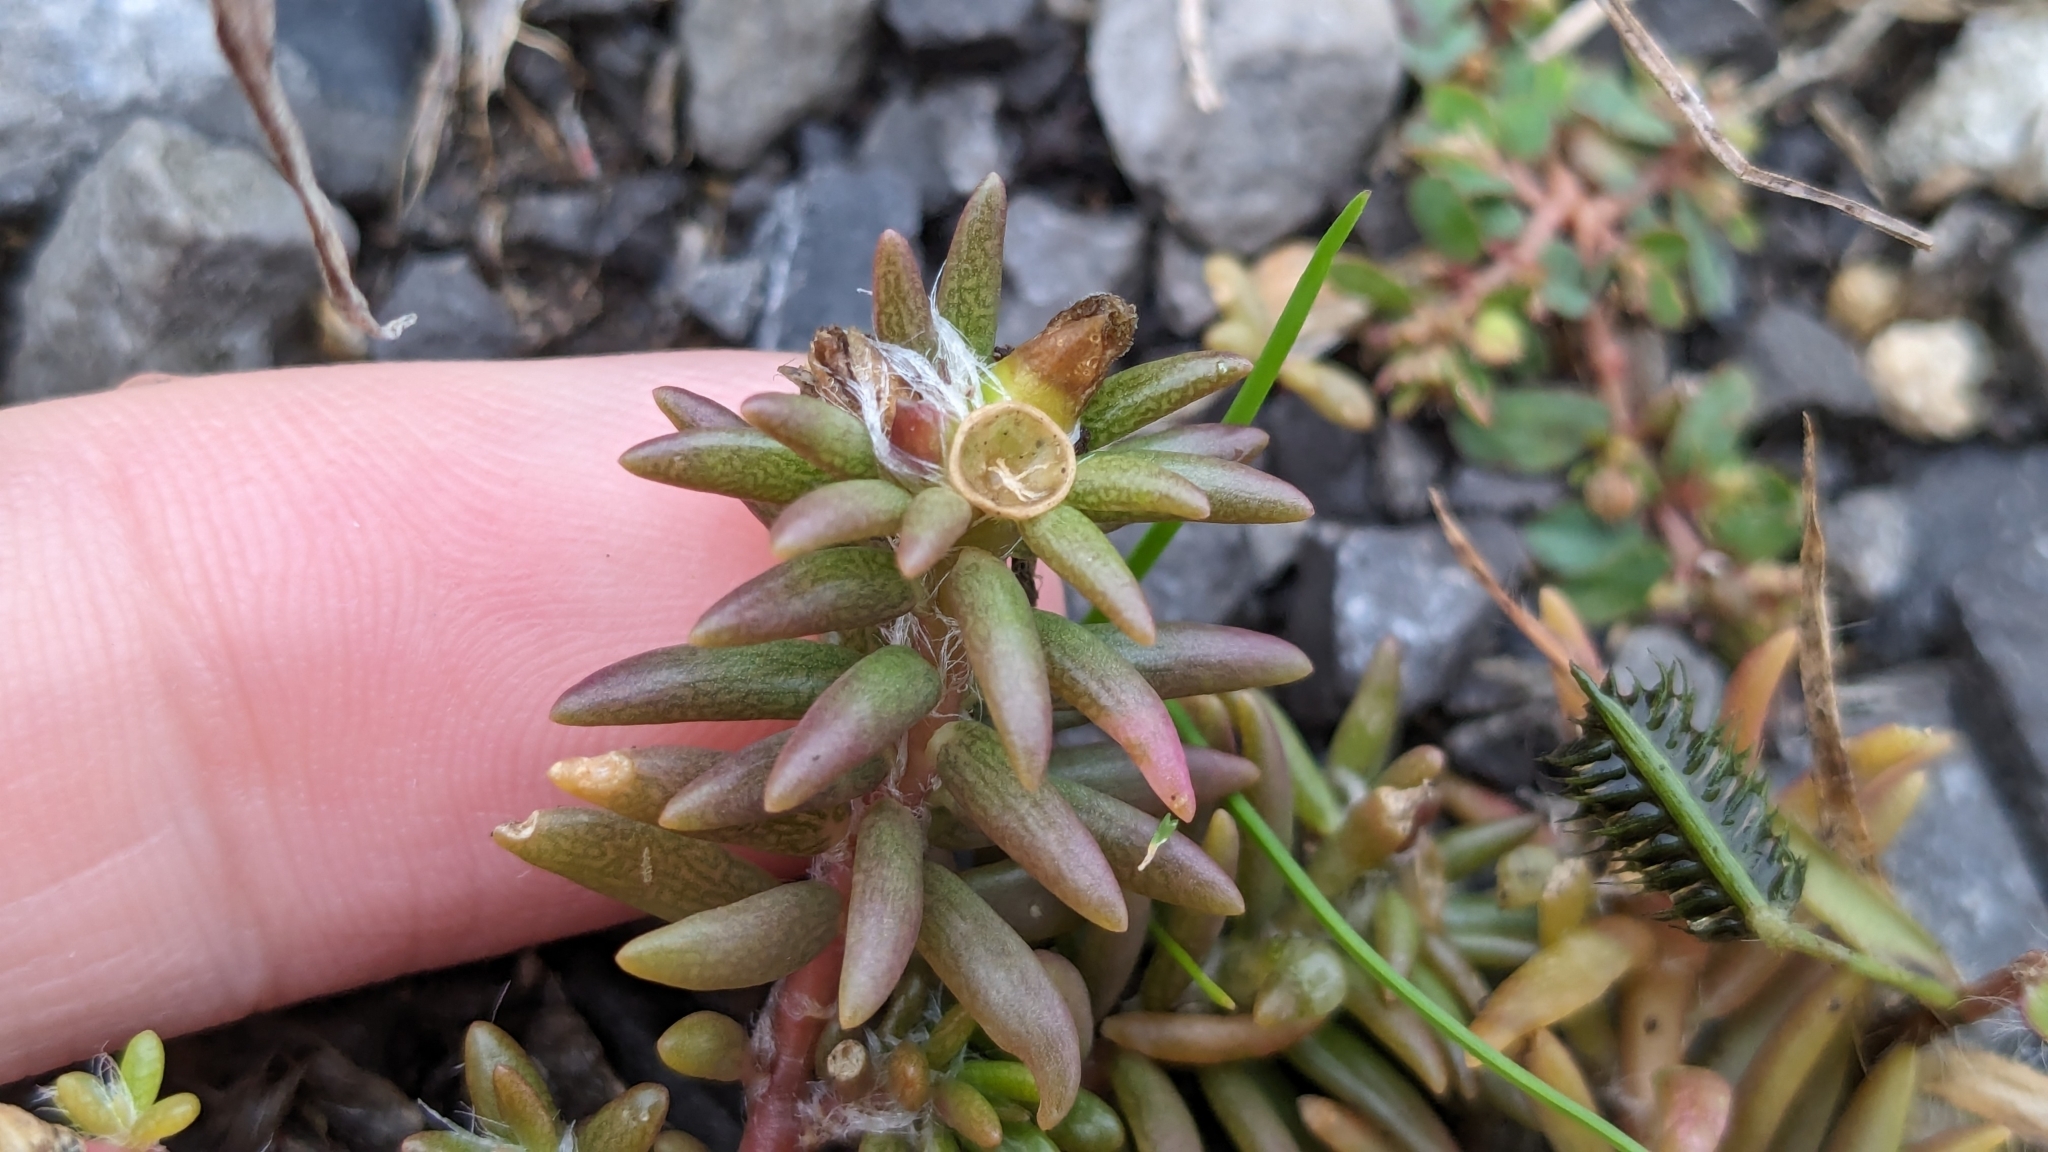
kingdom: Plantae
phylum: Tracheophyta
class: Magnoliopsida
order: Caryophyllales
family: Portulacaceae
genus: Portulaca
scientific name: Portulaca pilosa
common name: Kiss me quick
